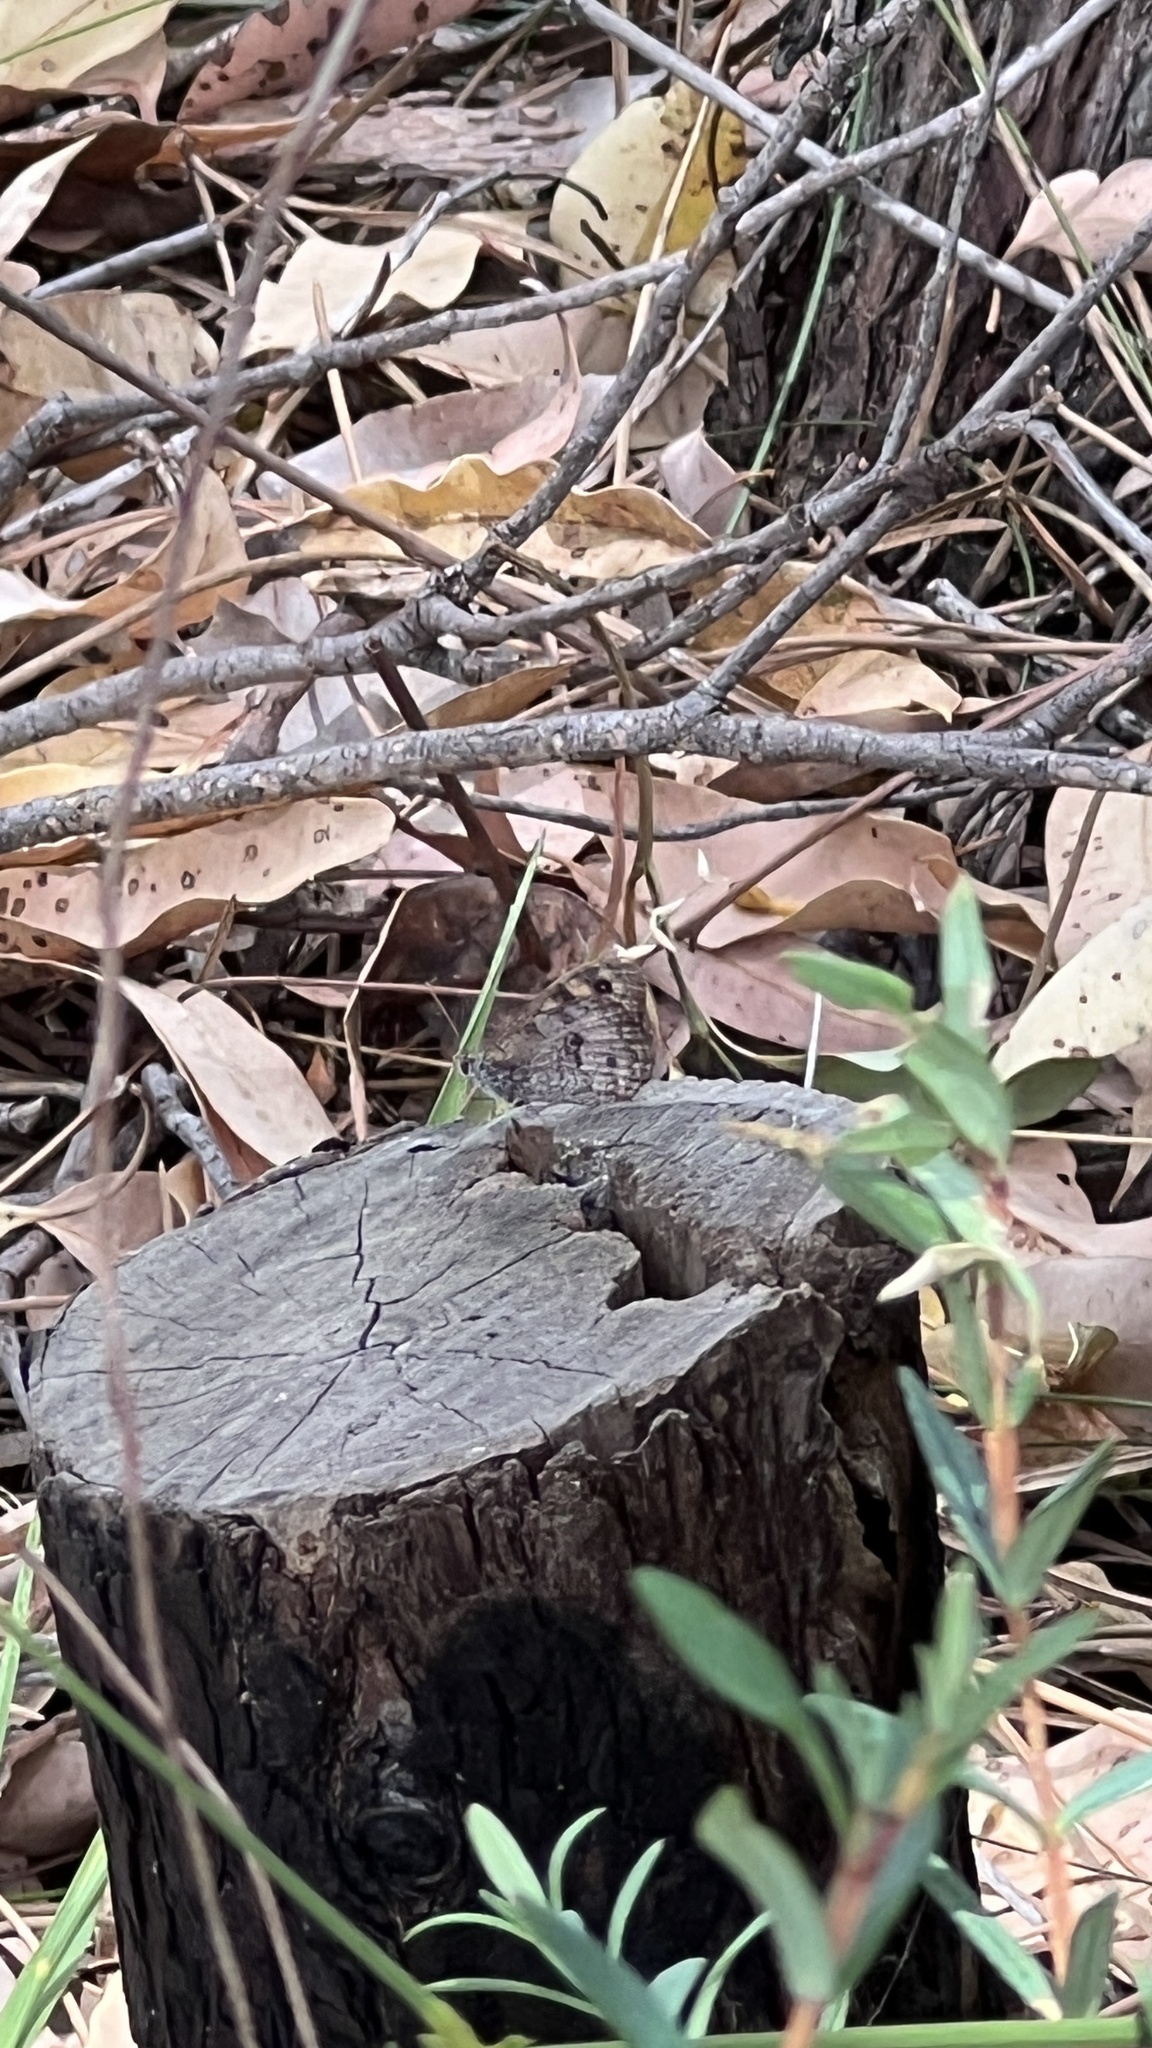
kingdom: Animalia
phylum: Arthropoda
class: Insecta
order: Lepidoptera
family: Nymphalidae
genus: Geitoneura
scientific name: Geitoneura klugii
